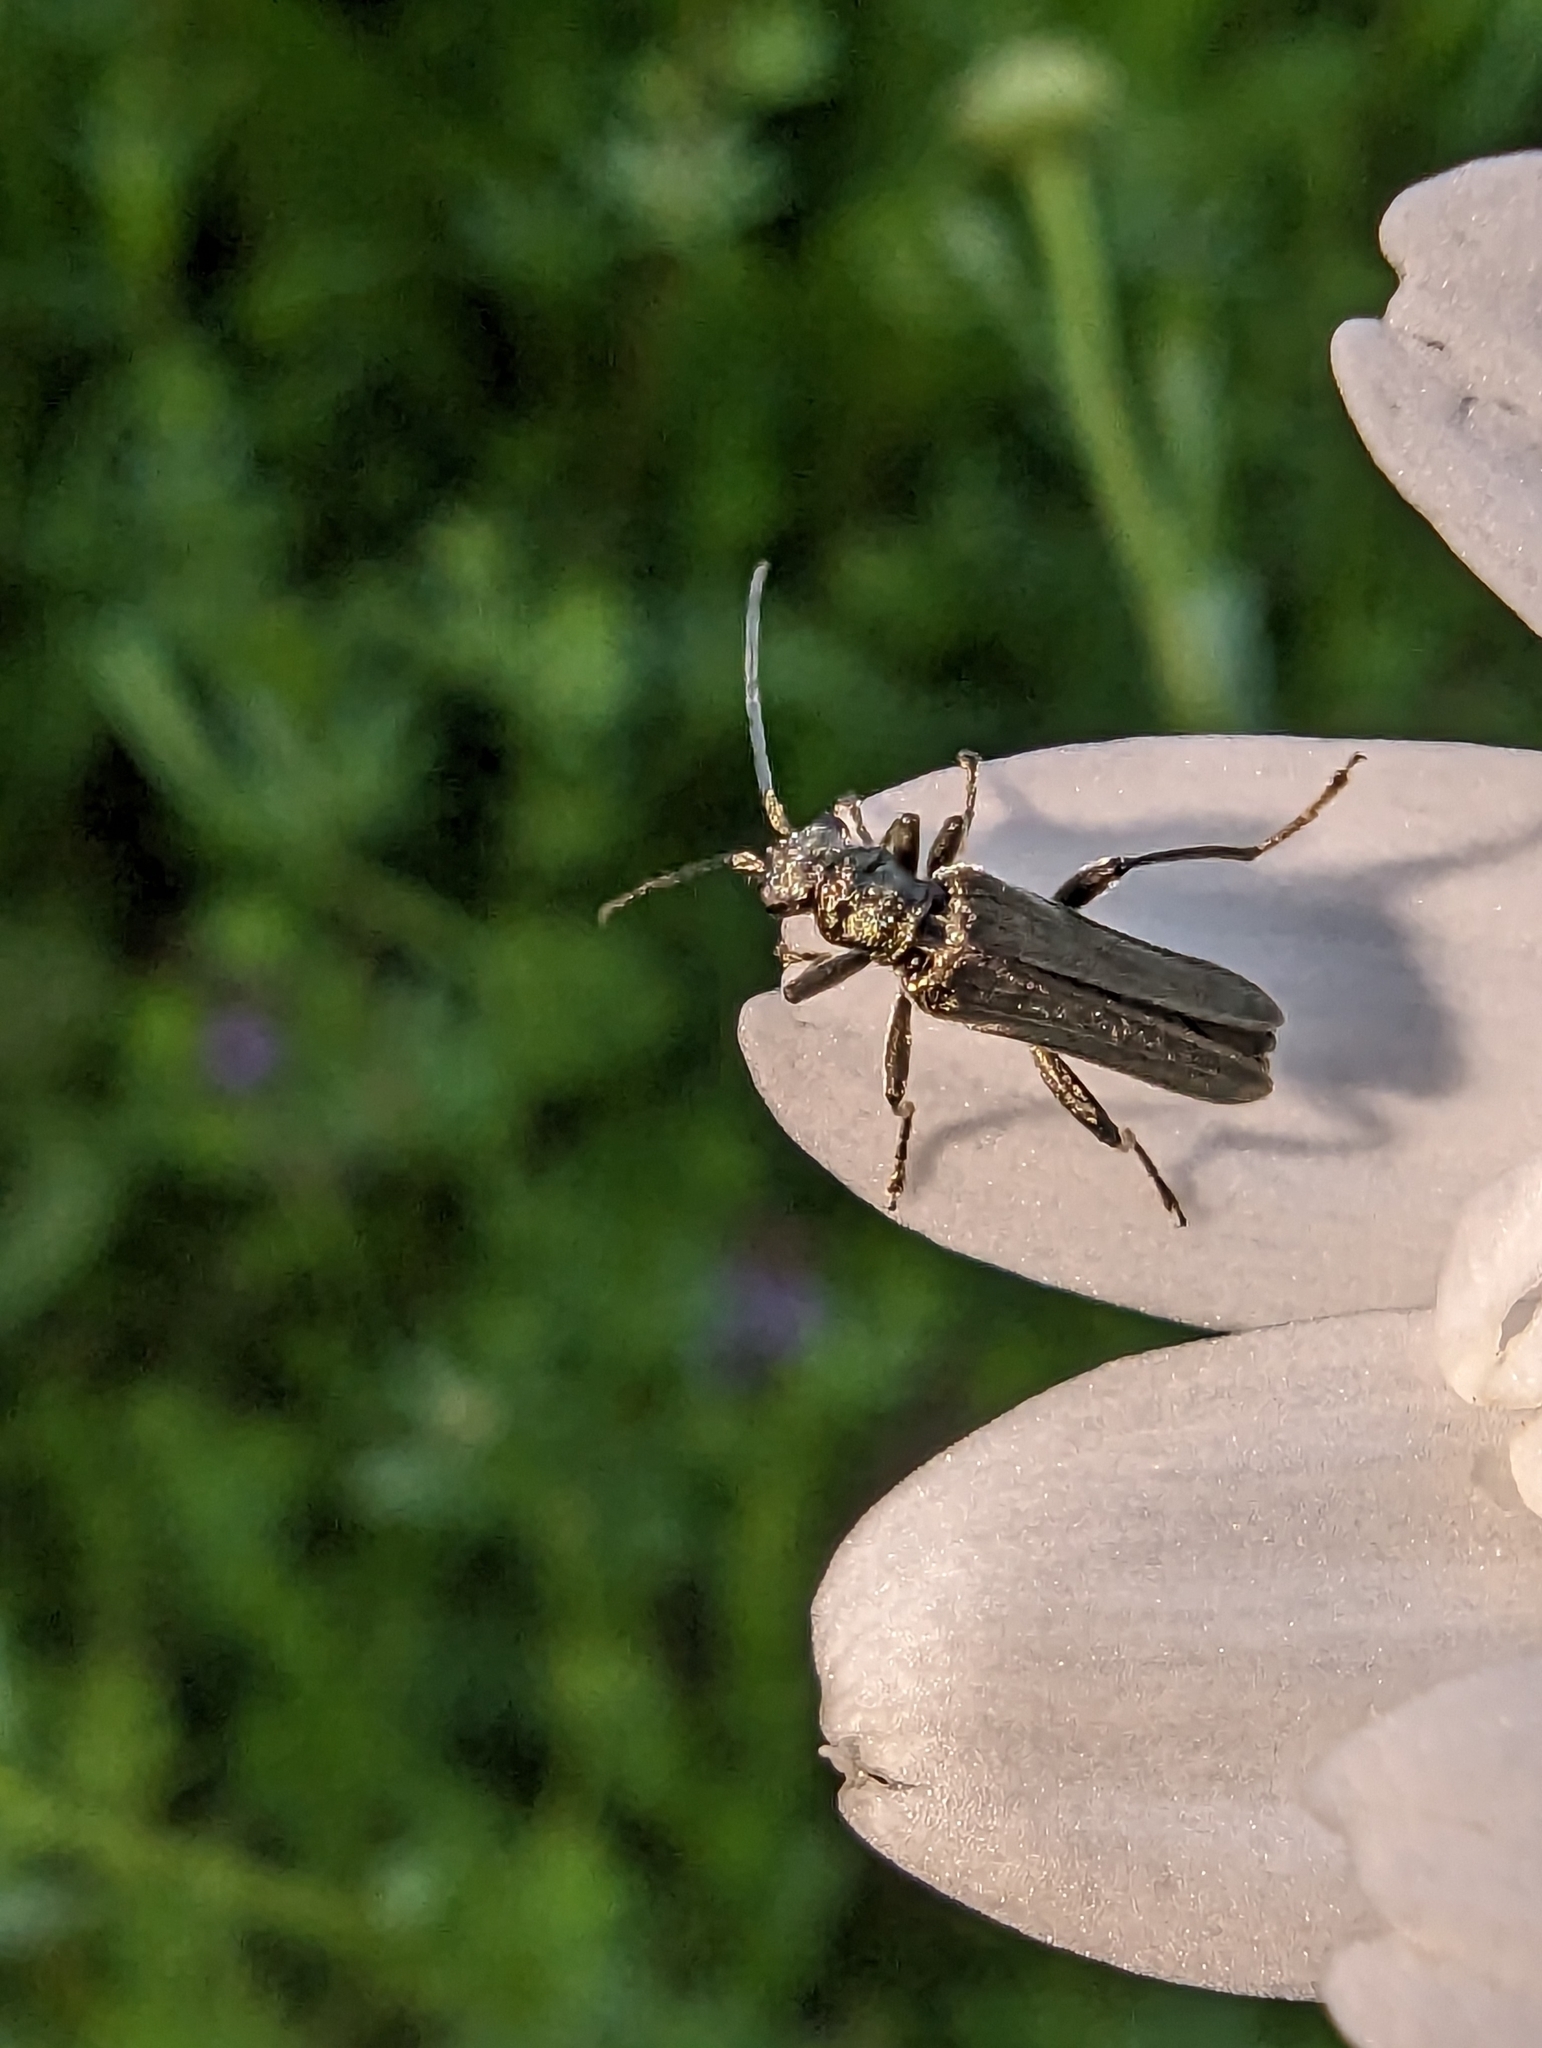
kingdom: Animalia
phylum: Arthropoda
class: Insecta
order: Coleoptera
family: Oedemeridae
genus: Oedemera
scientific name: Oedemera lurida
